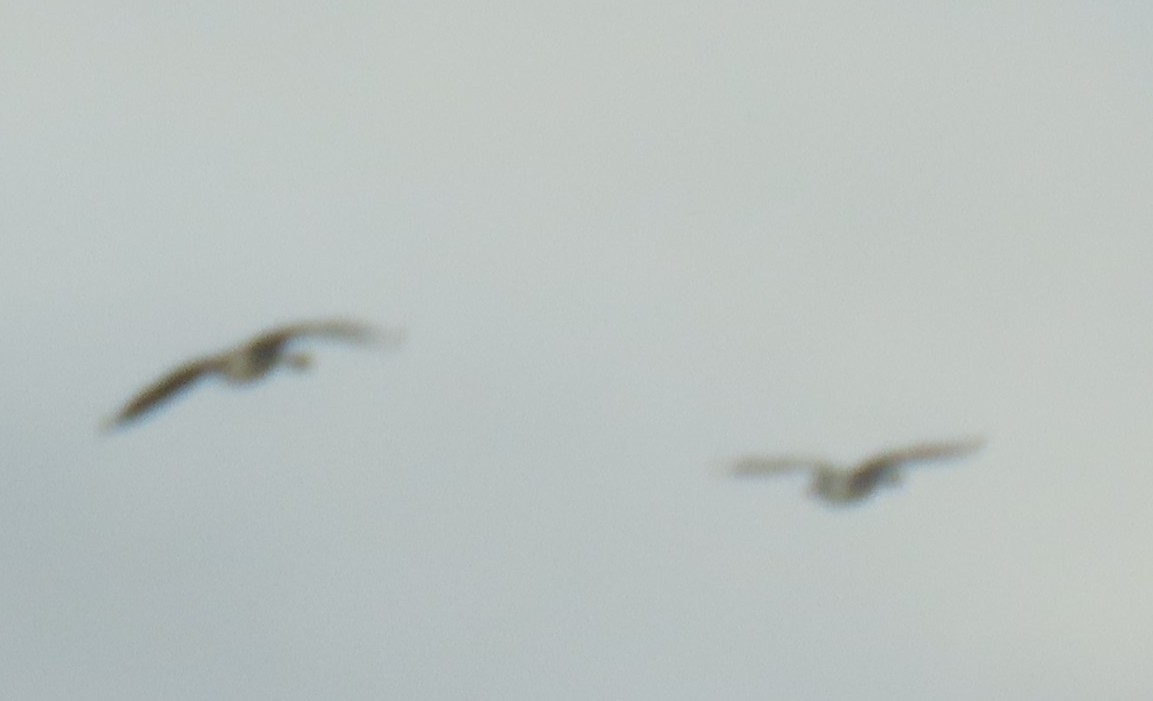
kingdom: Animalia
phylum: Chordata
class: Aves
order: Anseriformes
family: Anatidae
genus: Branta
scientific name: Branta canadensis
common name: Canada goose
